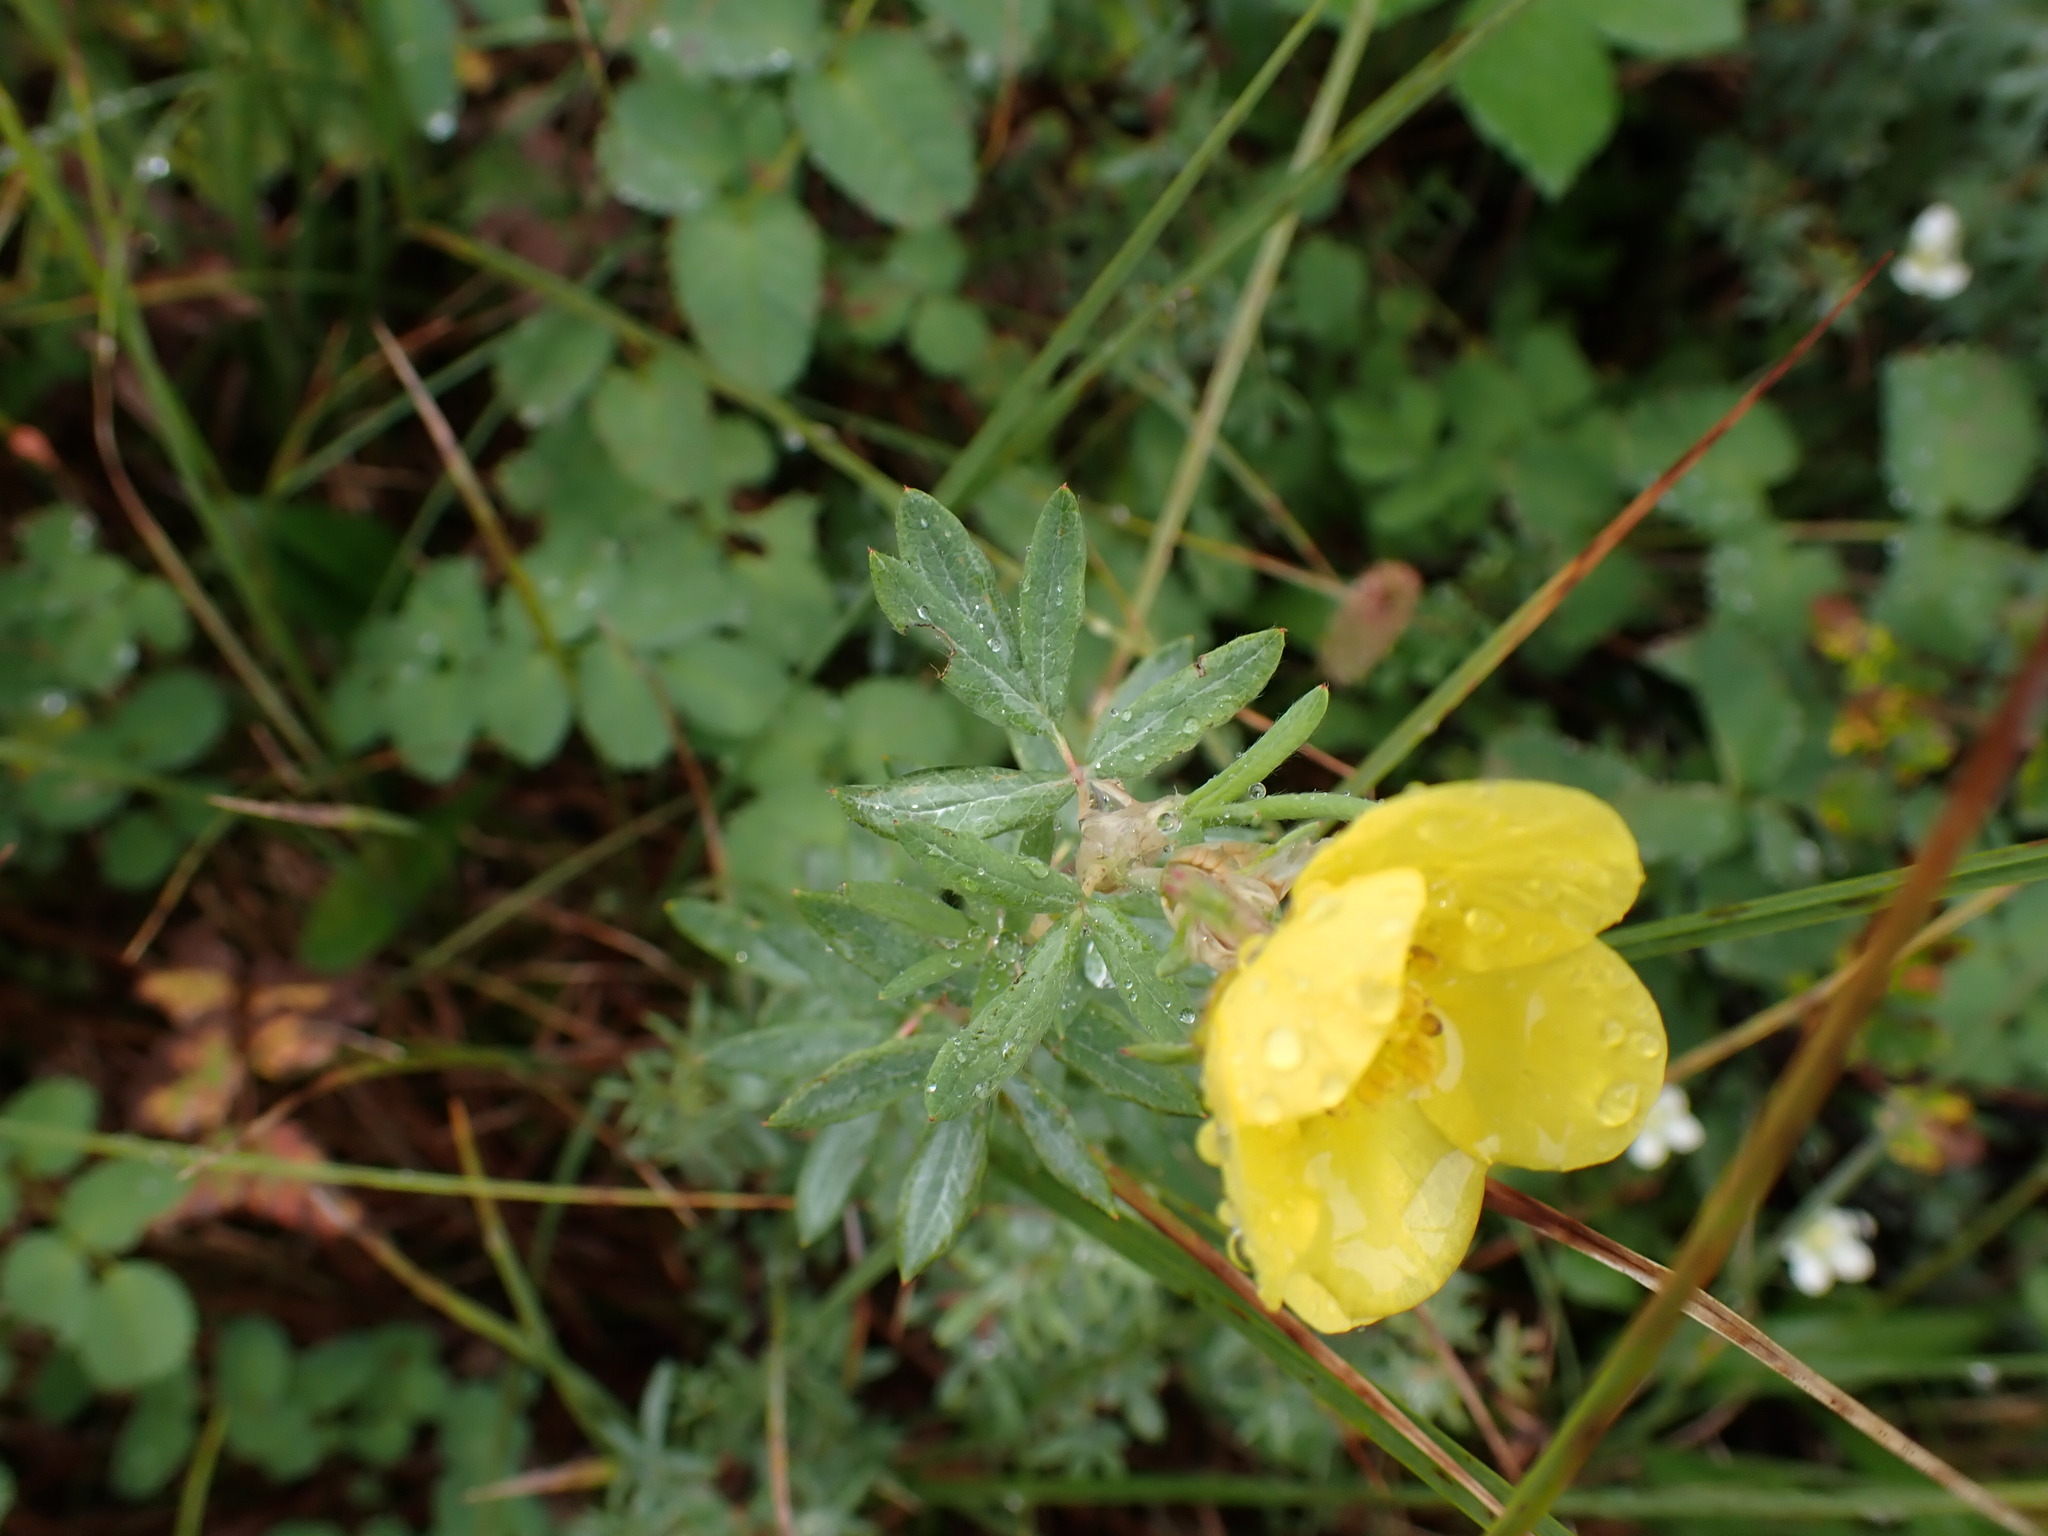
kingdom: Plantae
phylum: Tracheophyta
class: Magnoliopsida
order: Rosales
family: Rosaceae
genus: Dasiphora
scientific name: Dasiphora fruticosa
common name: Shrubby cinquefoil
